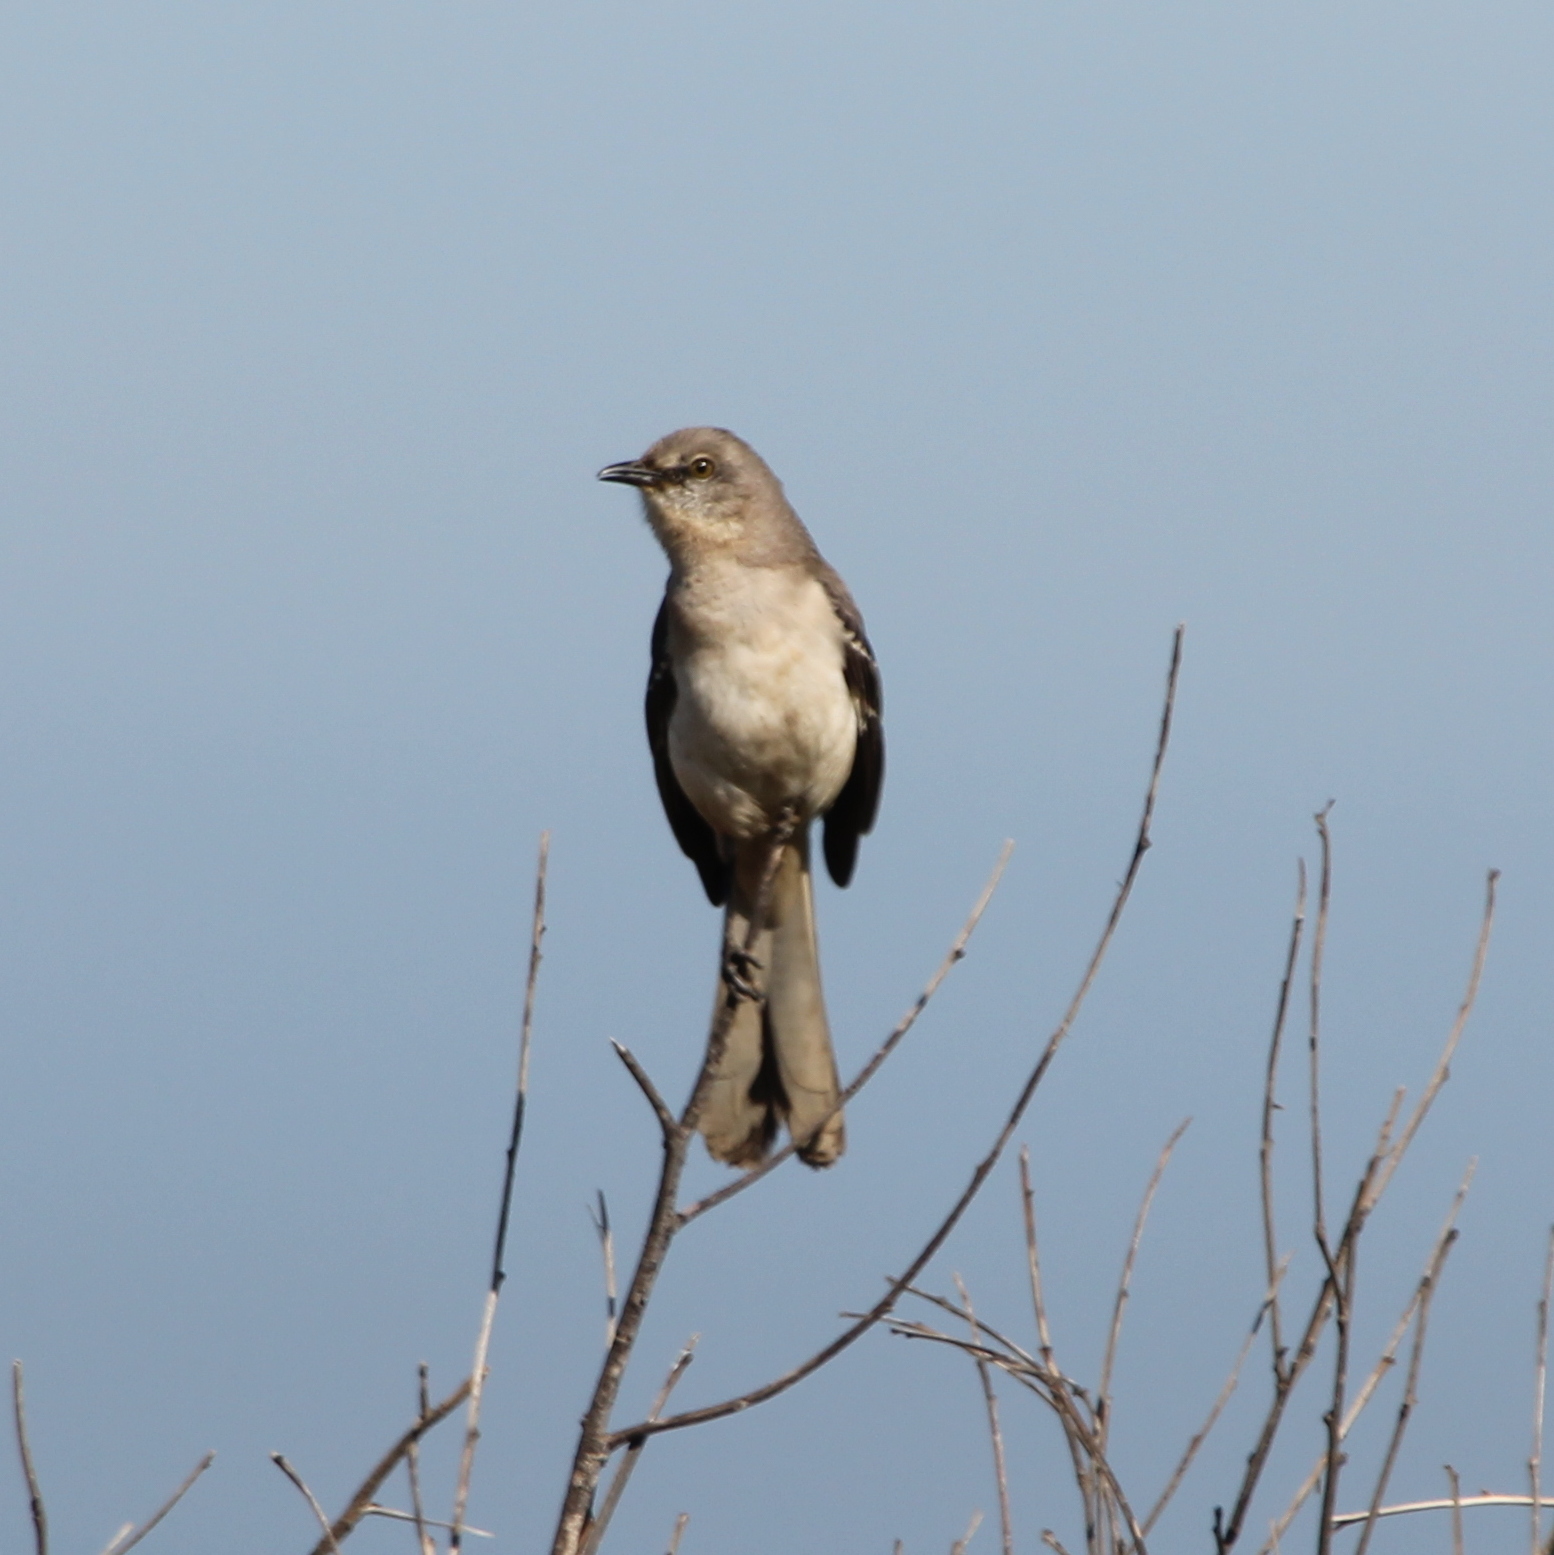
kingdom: Animalia
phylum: Chordata
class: Aves
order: Passeriformes
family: Mimidae
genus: Mimus
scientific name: Mimus polyglottos
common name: Northern mockingbird
